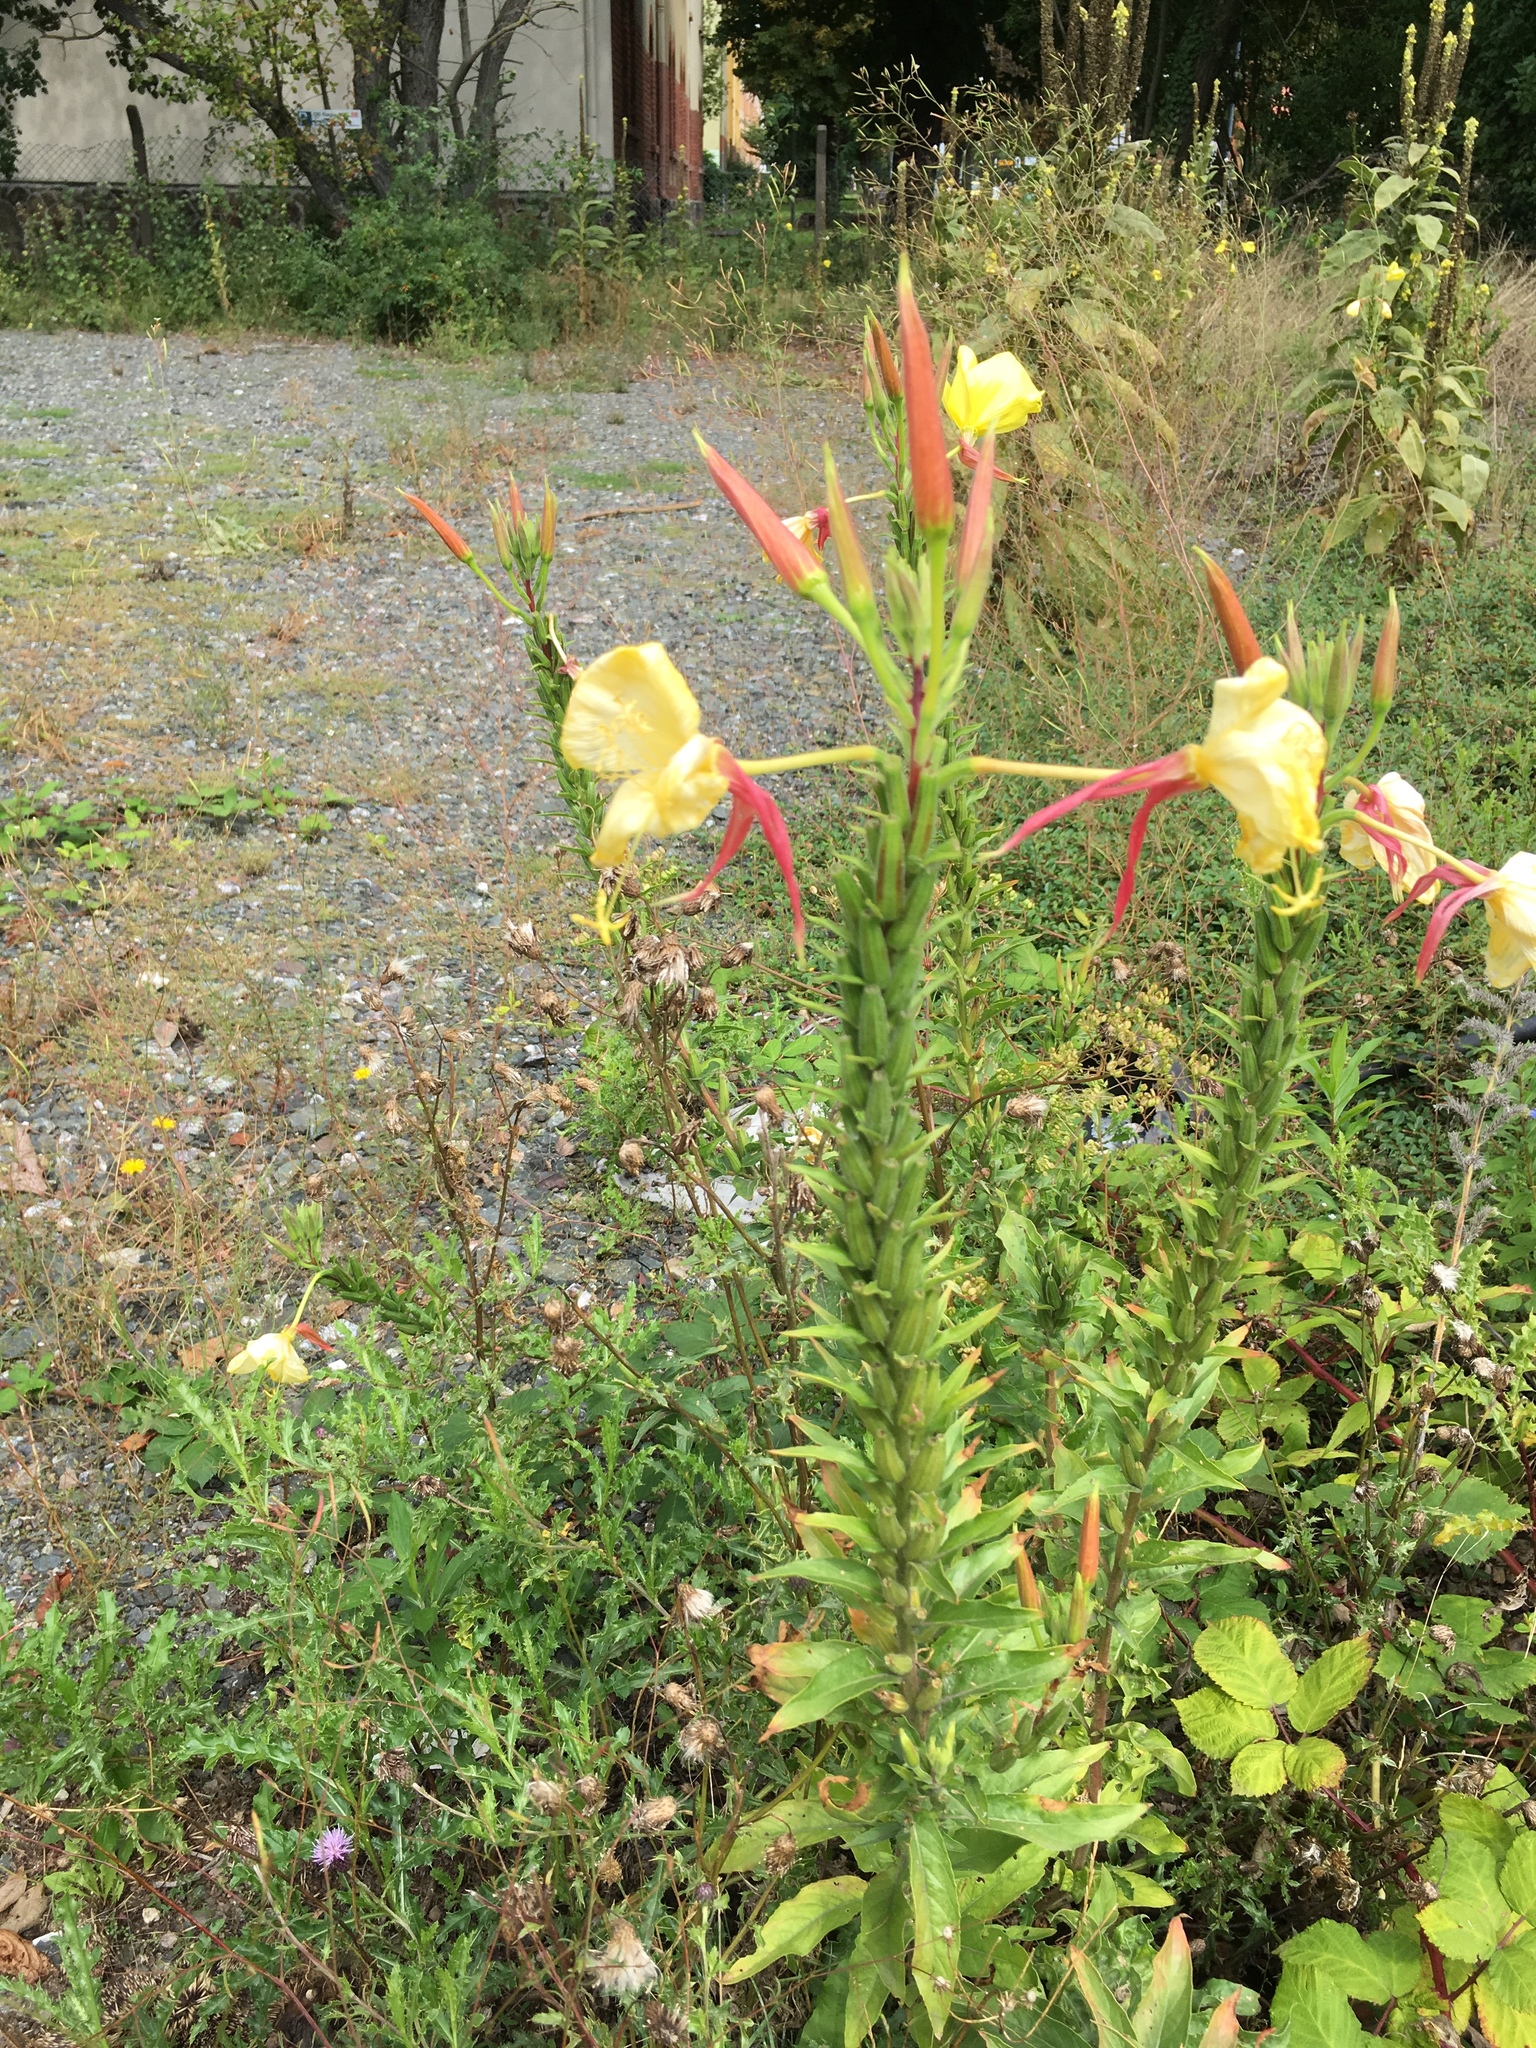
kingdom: Plantae
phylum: Tracheophyta
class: Magnoliopsida
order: Myrtales
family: Onagraceae
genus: Oenothera
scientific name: Oenothera glazioviana
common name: Large-flowered evening-primrose
